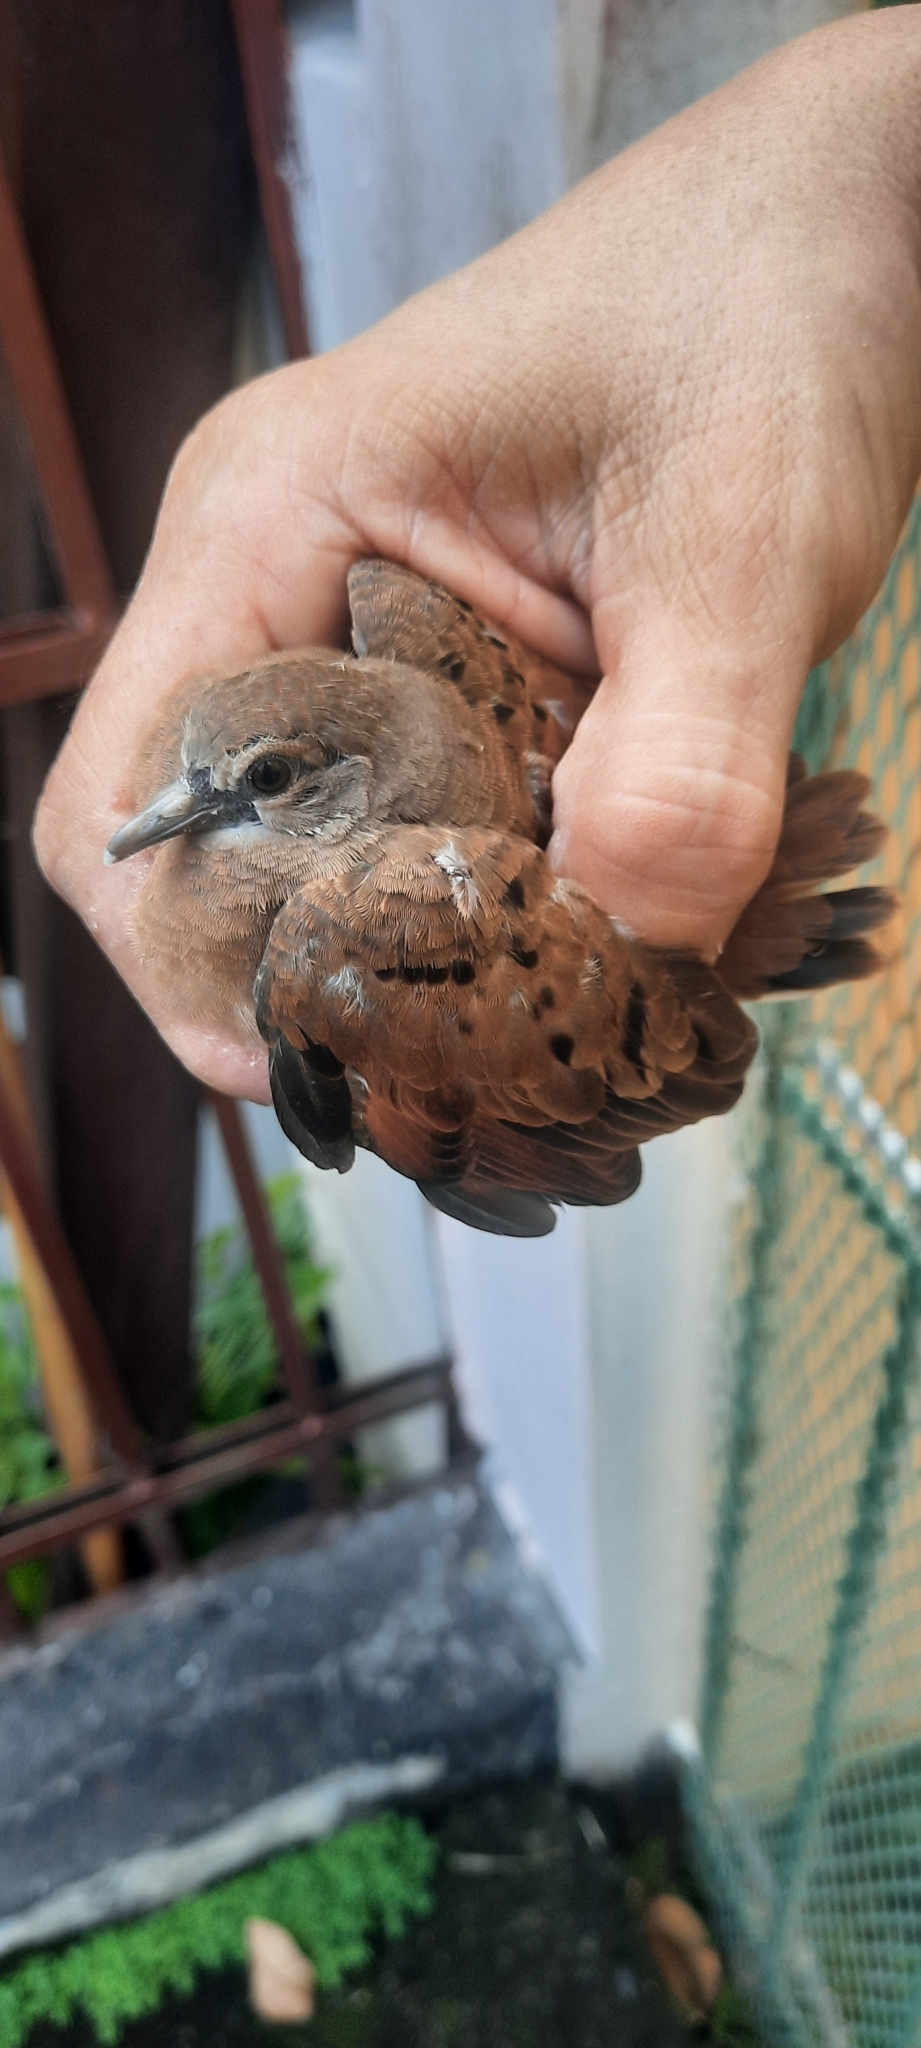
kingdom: Animalia
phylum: Chordata
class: Aves
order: Columbiformes
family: Columbidae
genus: Columbina
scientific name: Columbina talpacoti
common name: Ruddy ground dove
